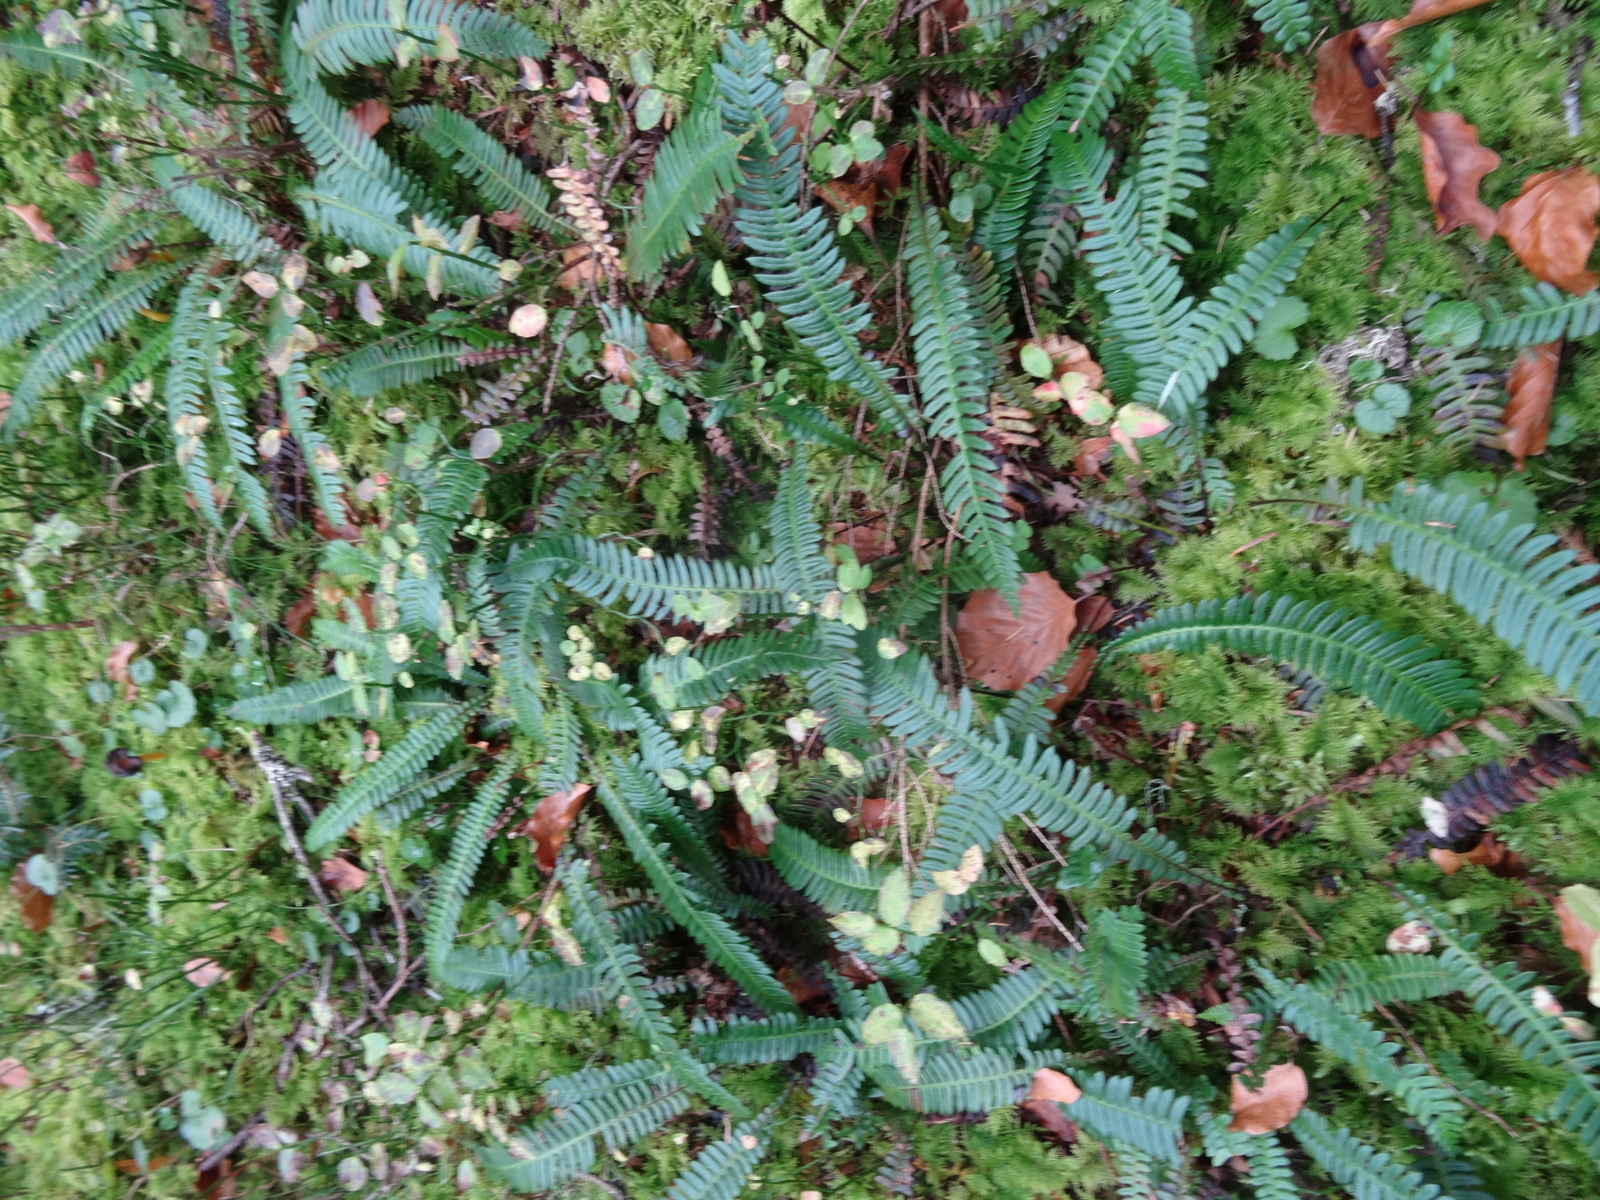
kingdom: Plantae
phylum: Tracheophyta
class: Polypodiopsida
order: Polypodiales
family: Blechnaceae
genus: Struthiopteris
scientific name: Struthiopteris spicant
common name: Deer fern
